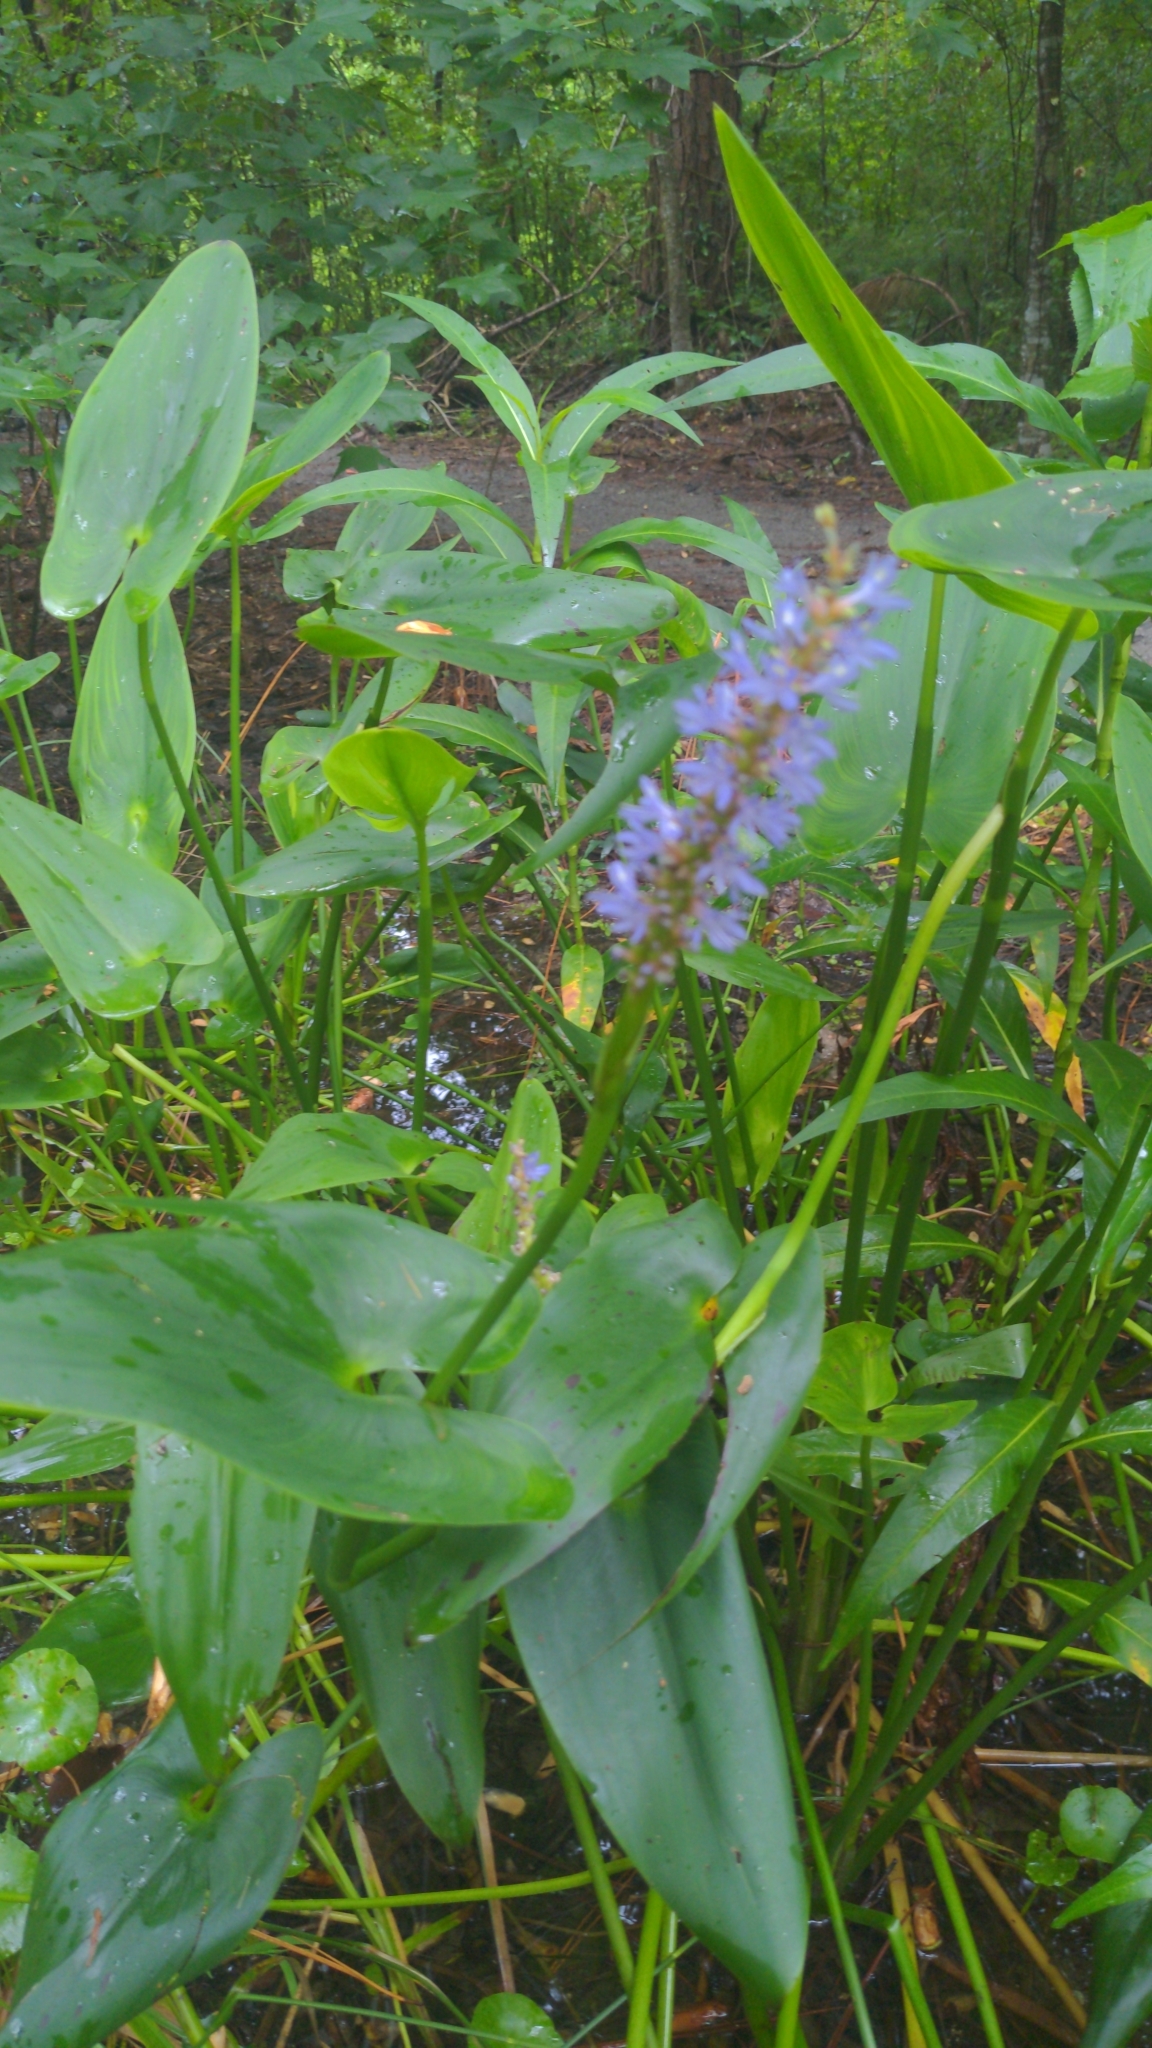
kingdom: Plantae
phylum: Tracheophyta
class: Liliopsida
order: Commelinales
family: Pontederiaceae
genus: Pontederia
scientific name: Pontederia cordata
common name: Pickerelweed
